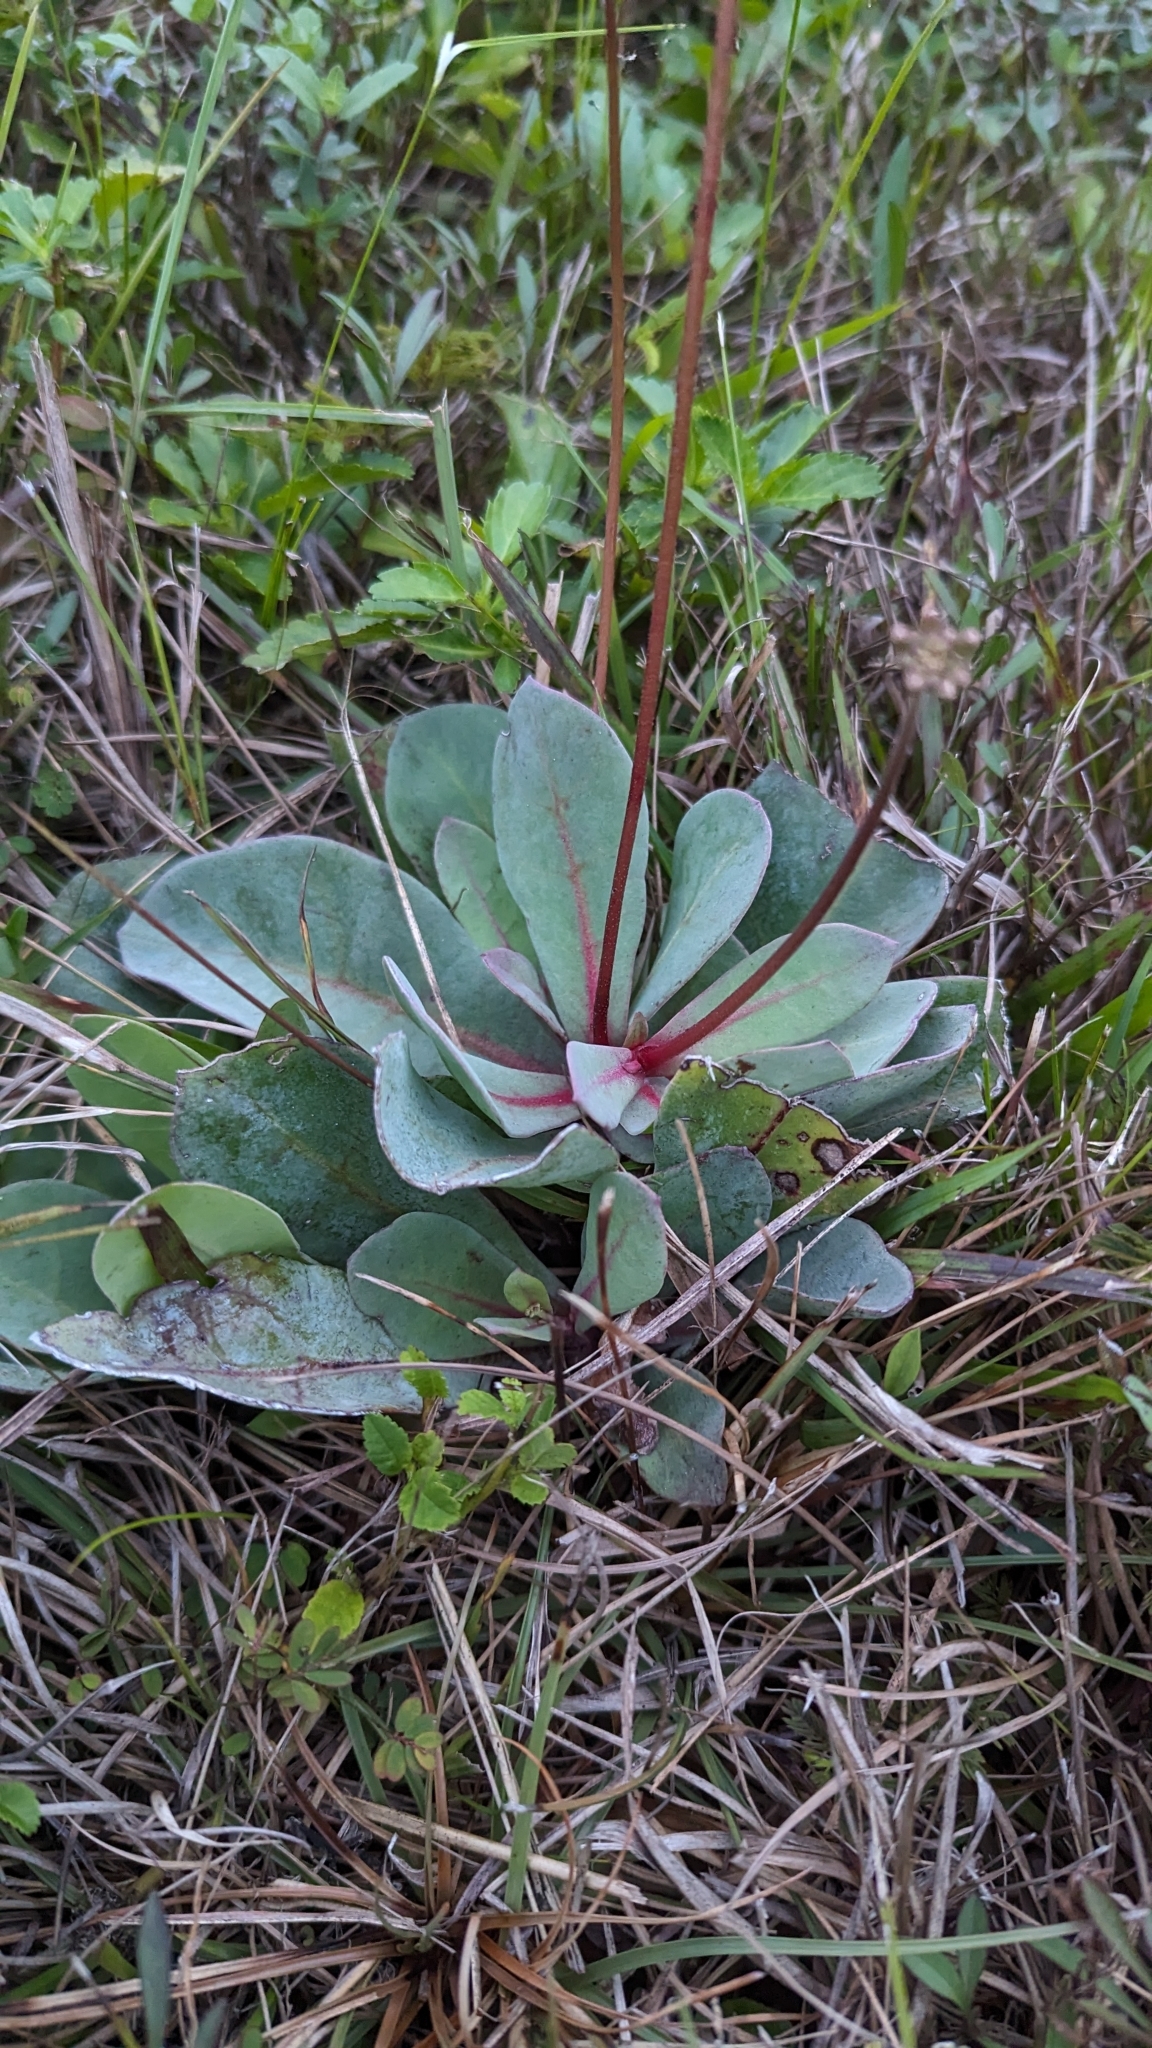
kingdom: Plantae
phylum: Tracheophyta
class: Magnoliopsida
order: Ericales
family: Primulaceae
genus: Samolus
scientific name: Samolus ebracteatus
